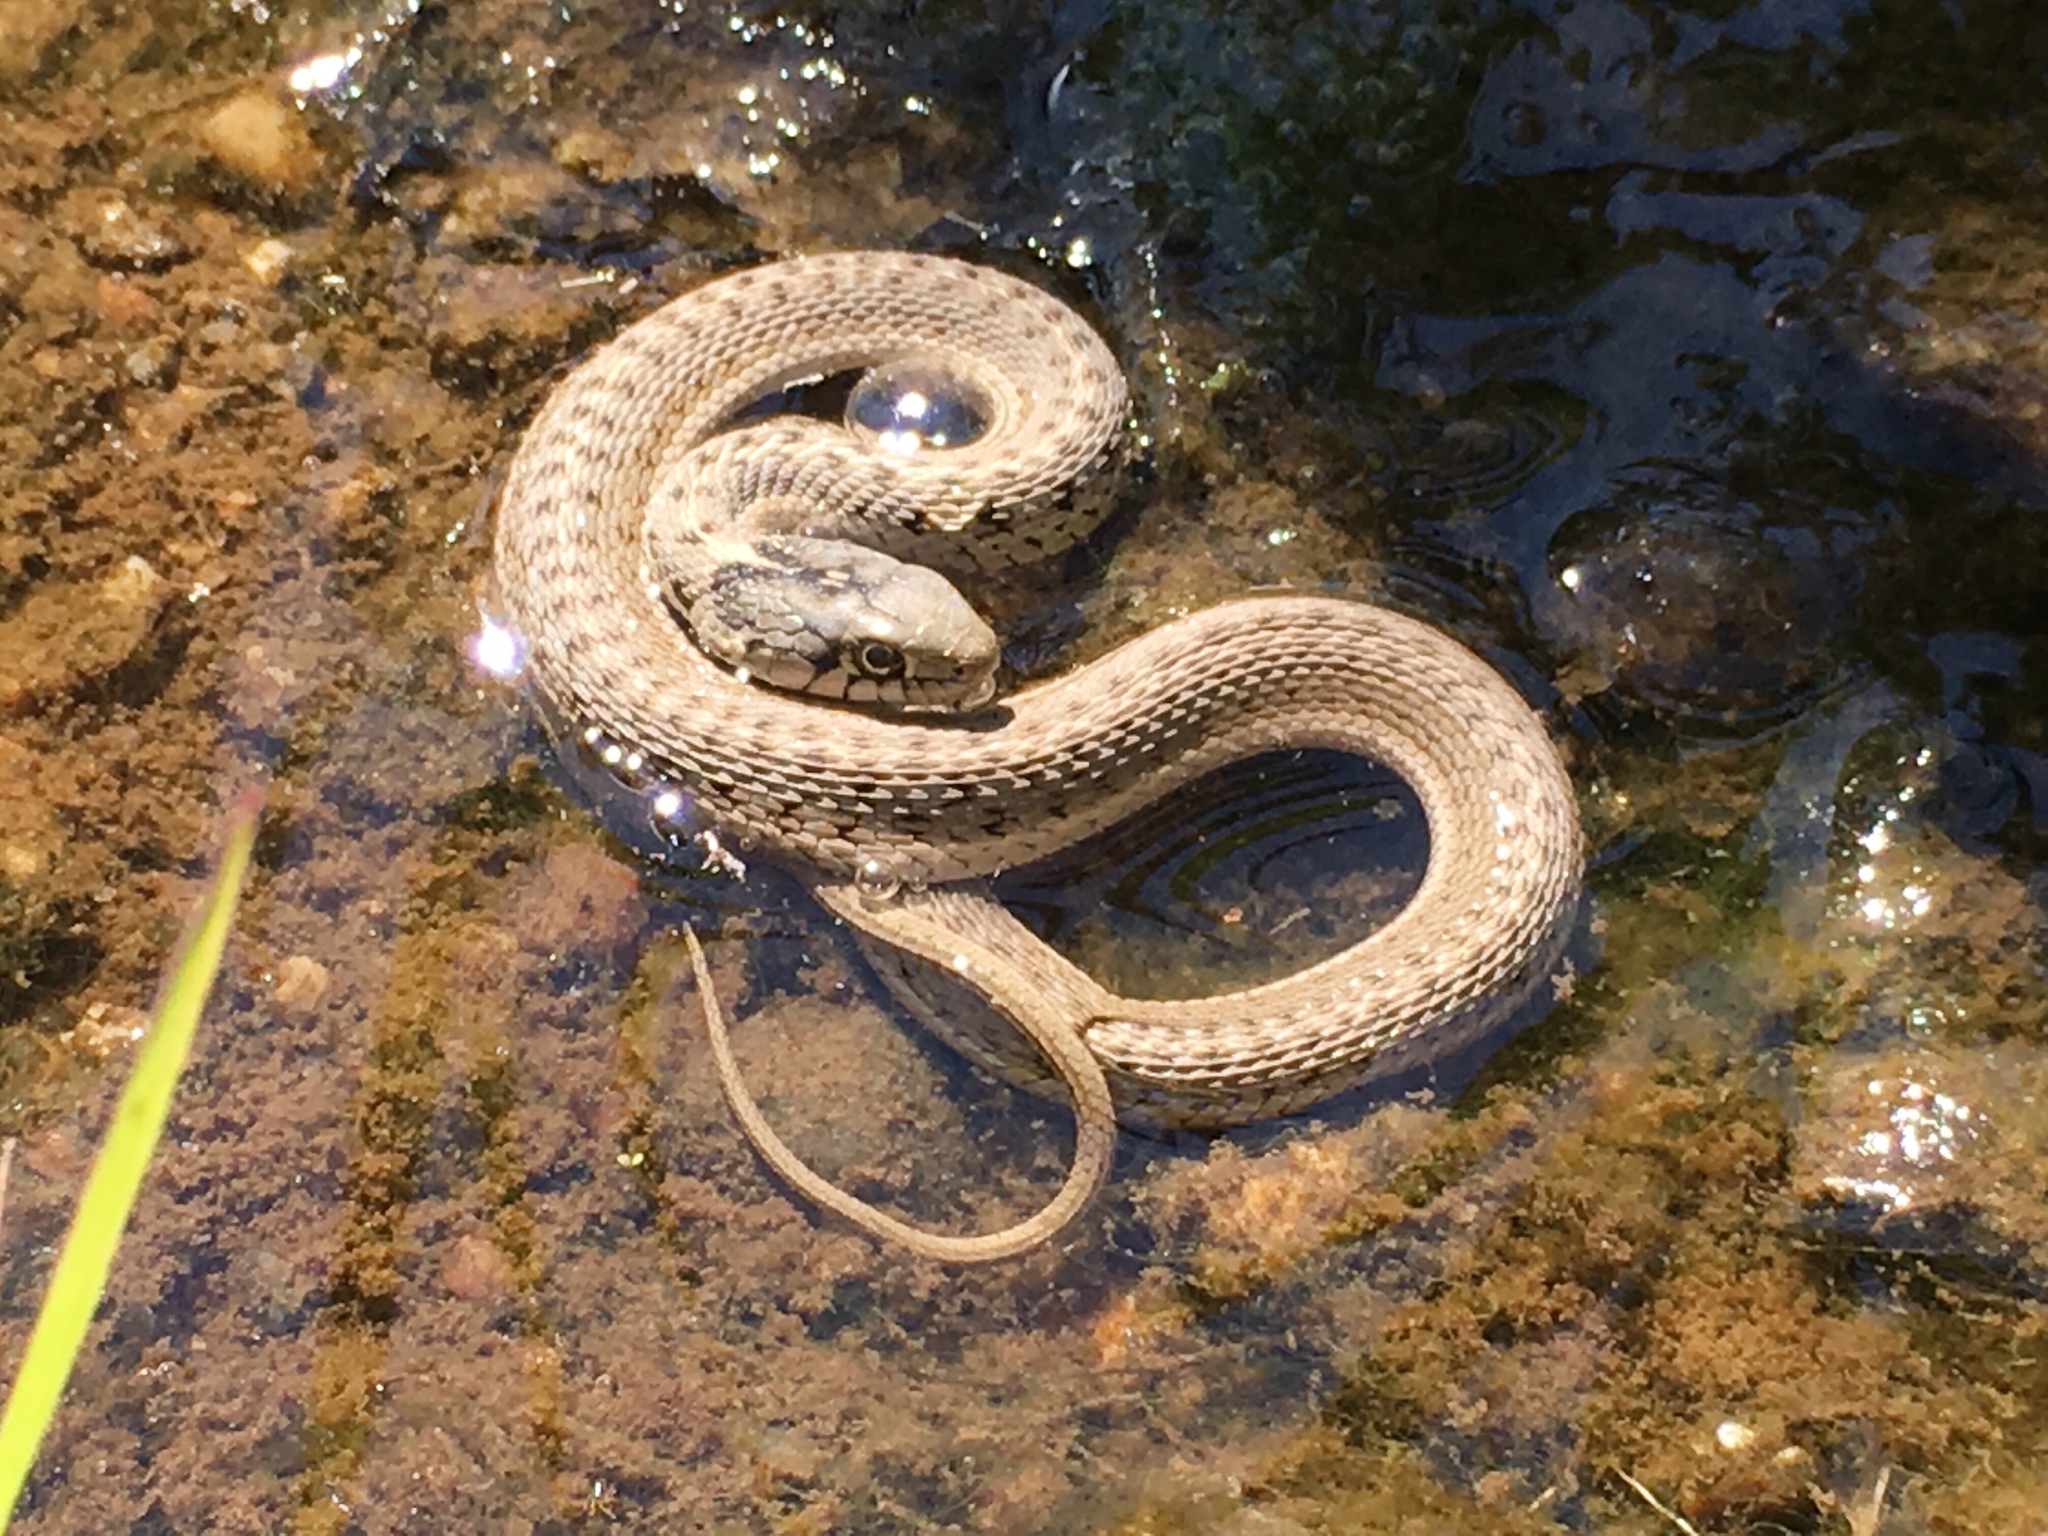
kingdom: Animalia
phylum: Chordata
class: Squamata
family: Colubridae
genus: Thamnophis
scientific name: Thamnophis elegans
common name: Western terrestrial garter snake
